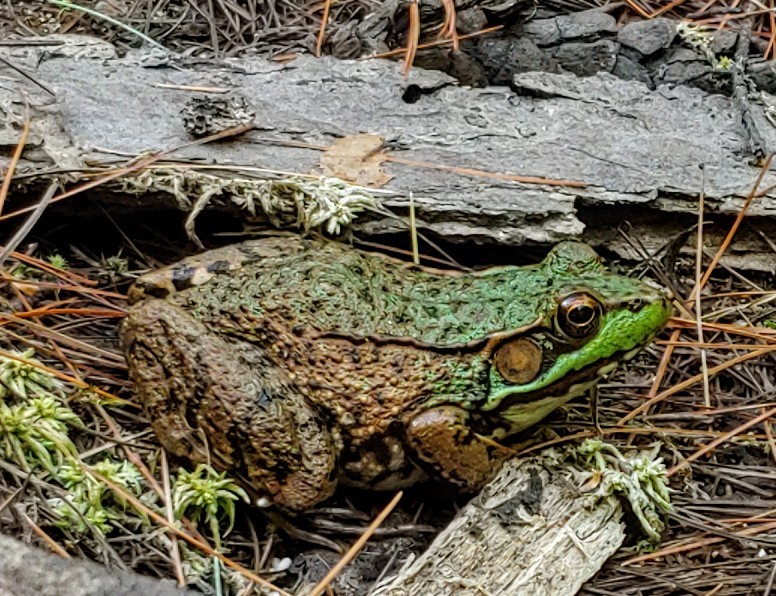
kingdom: Animalia
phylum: Chordata
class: Amphibia
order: Anura
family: Ranidae
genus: Lithobates
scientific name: Lithobates clamitans
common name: Green frog
